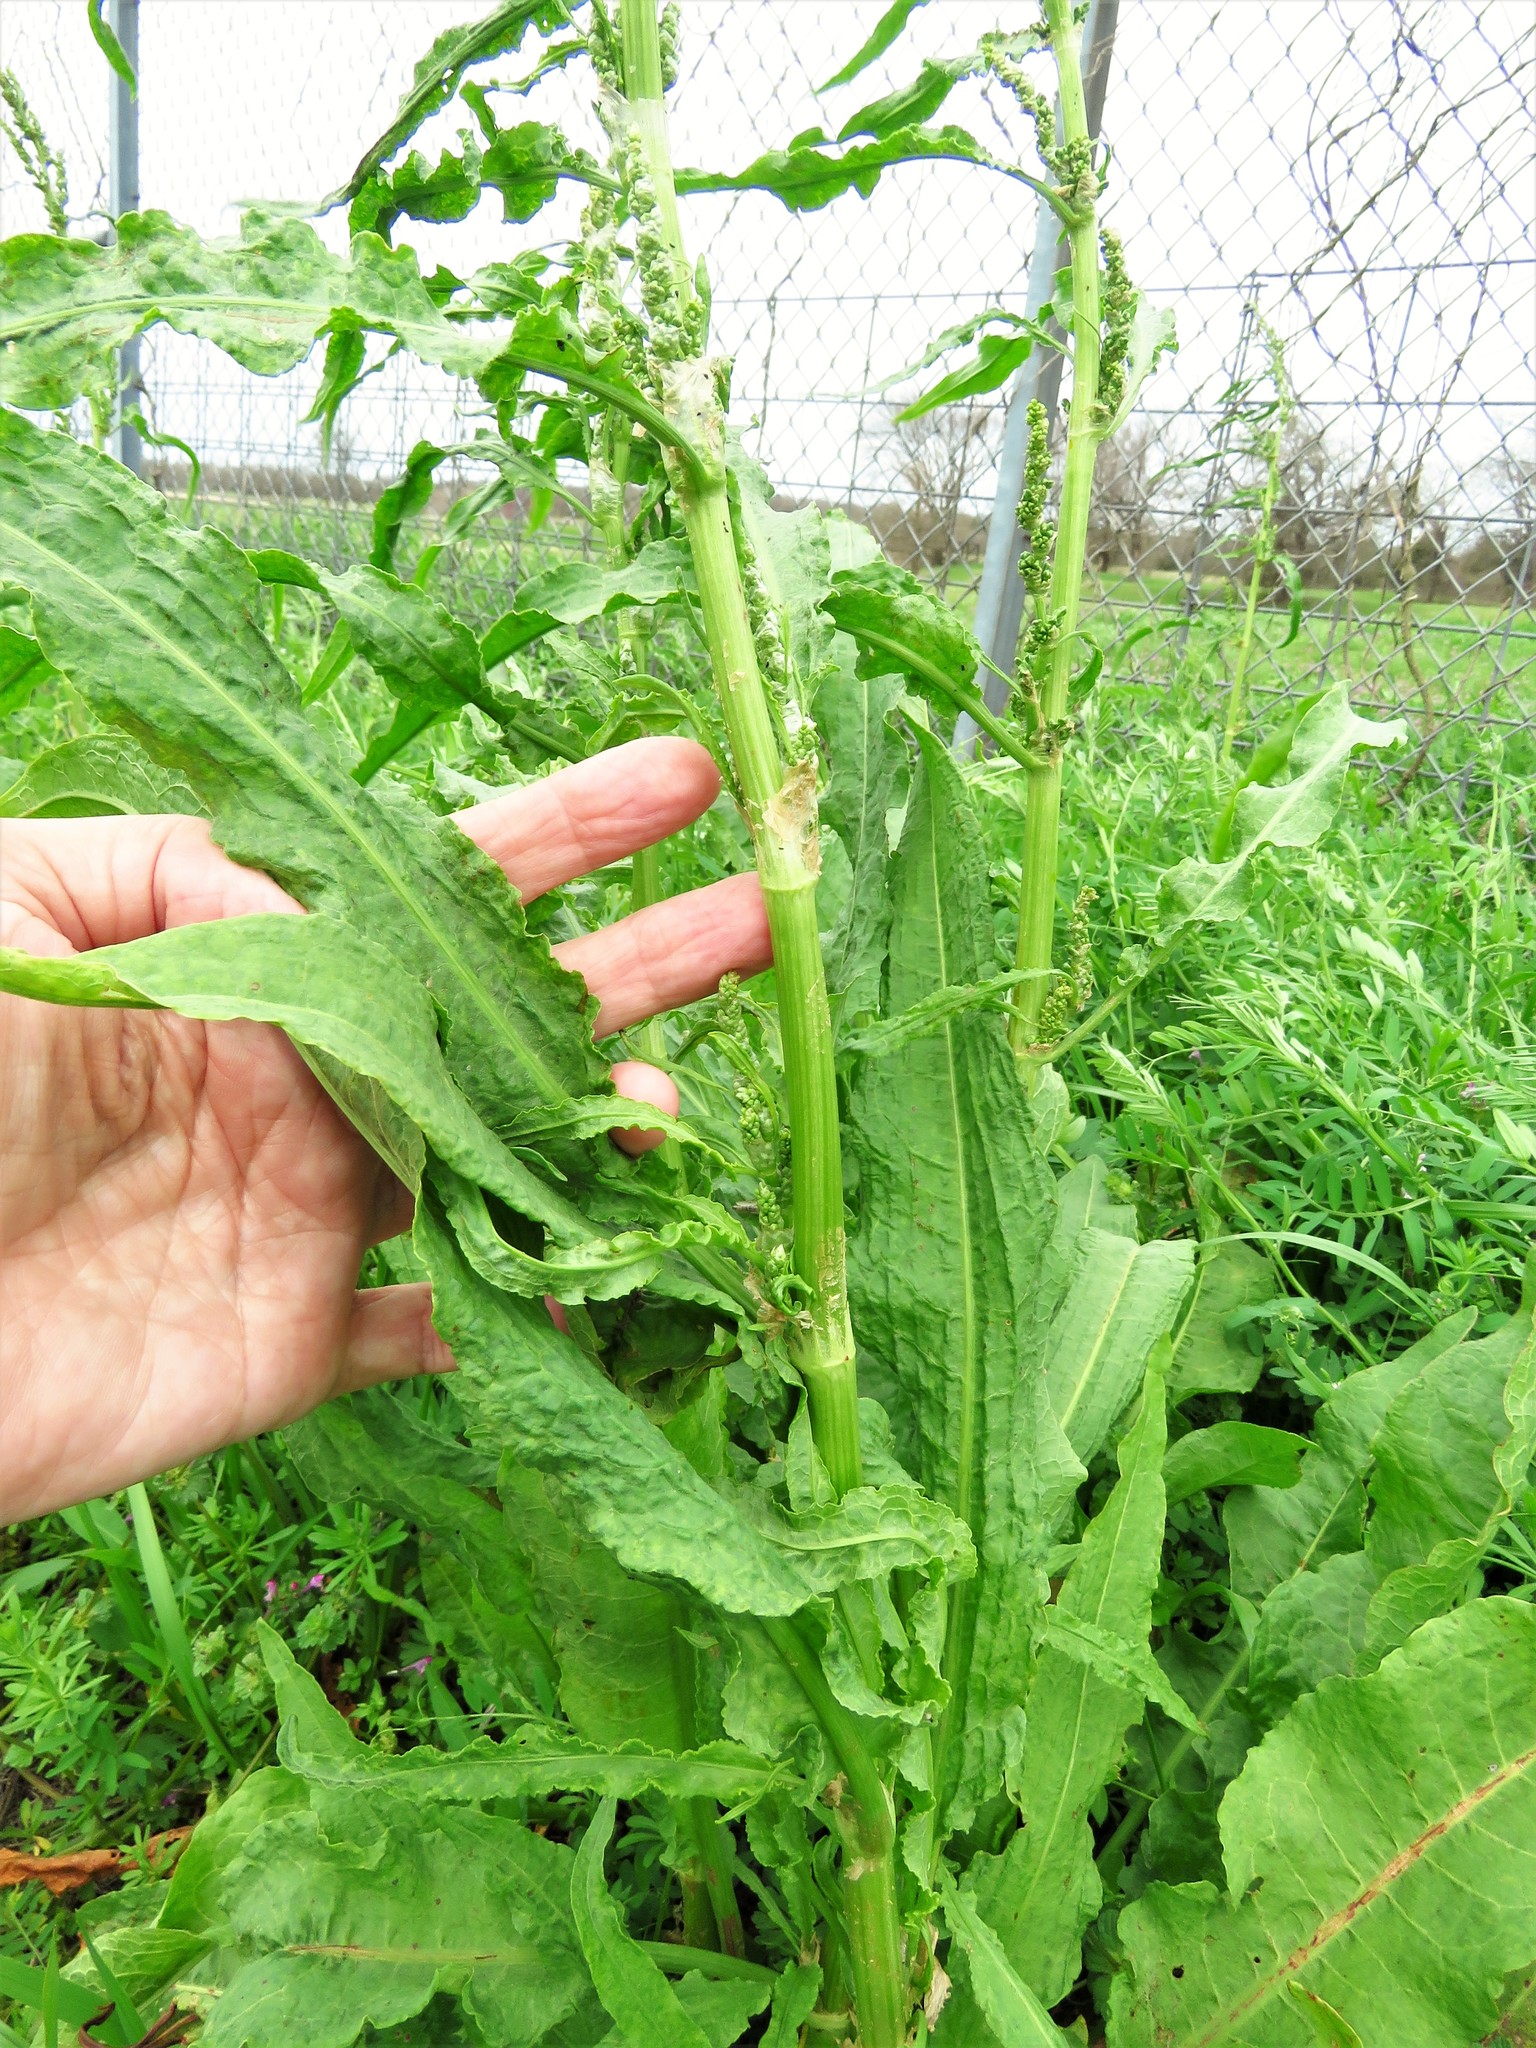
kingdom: Plantae
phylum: Tracheophyta
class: Magnoliopsida
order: Caryophyllales
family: Polygonaceae
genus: Rumex
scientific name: Rumex crispus
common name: Curled dock
